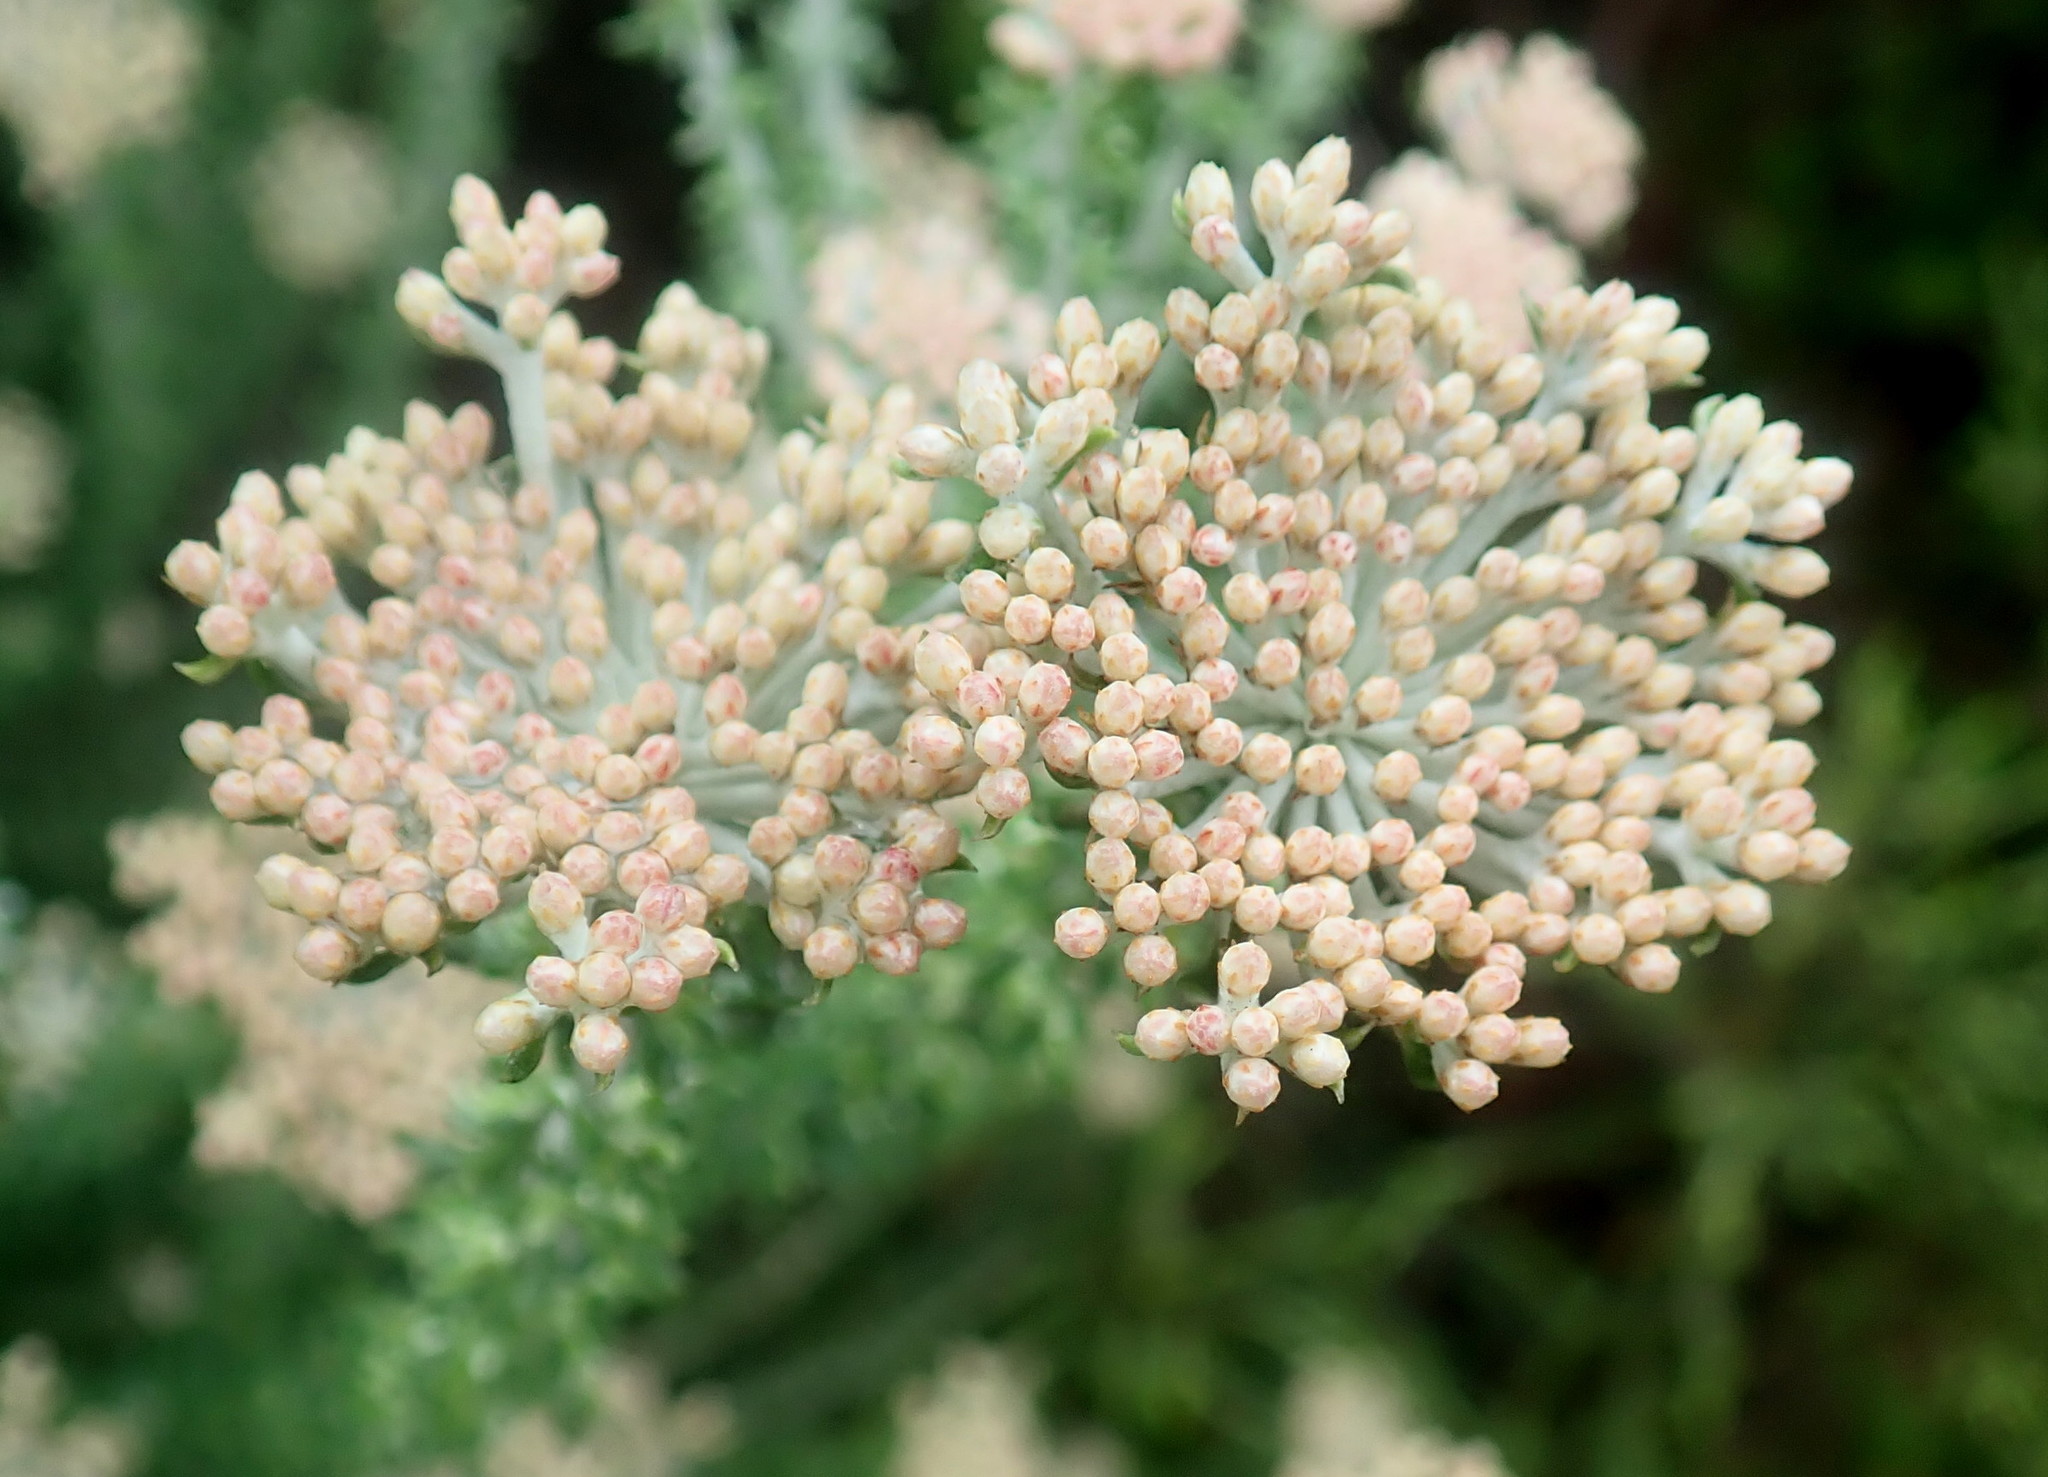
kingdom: Plantae
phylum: Tracheophyta
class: Magnoliopsida
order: Asterales
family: Asteraceae
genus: Metalasia
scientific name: Metalasia muricata
